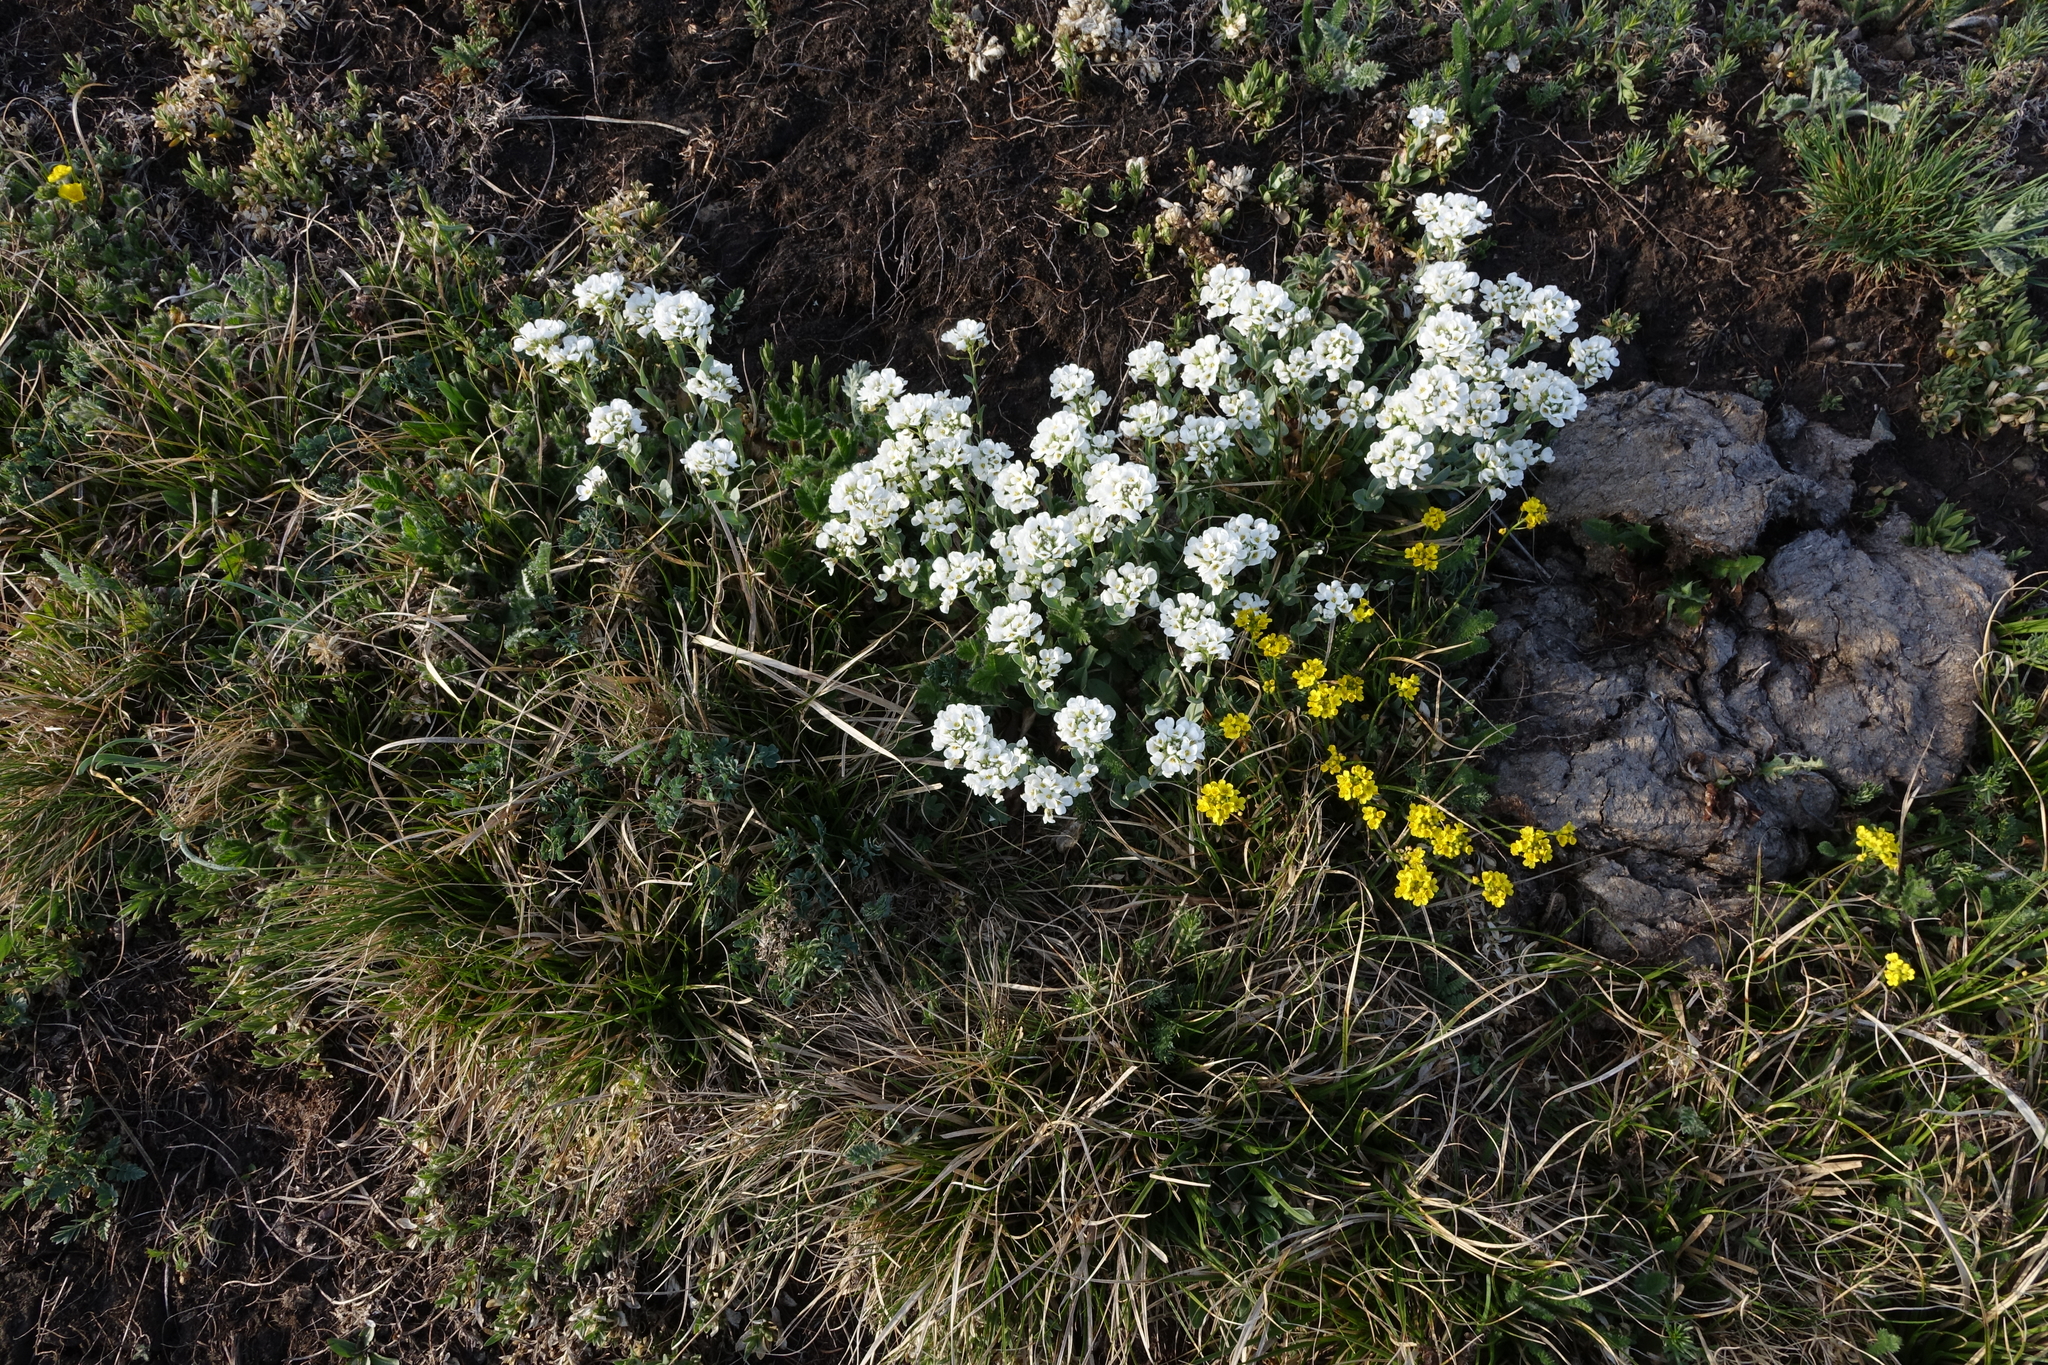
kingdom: Plantae
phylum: Tracheophyta
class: Magnoliopsida
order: Brassicales
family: Brassicaceae
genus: Noccaea
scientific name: Noccaea thlaspidioides
